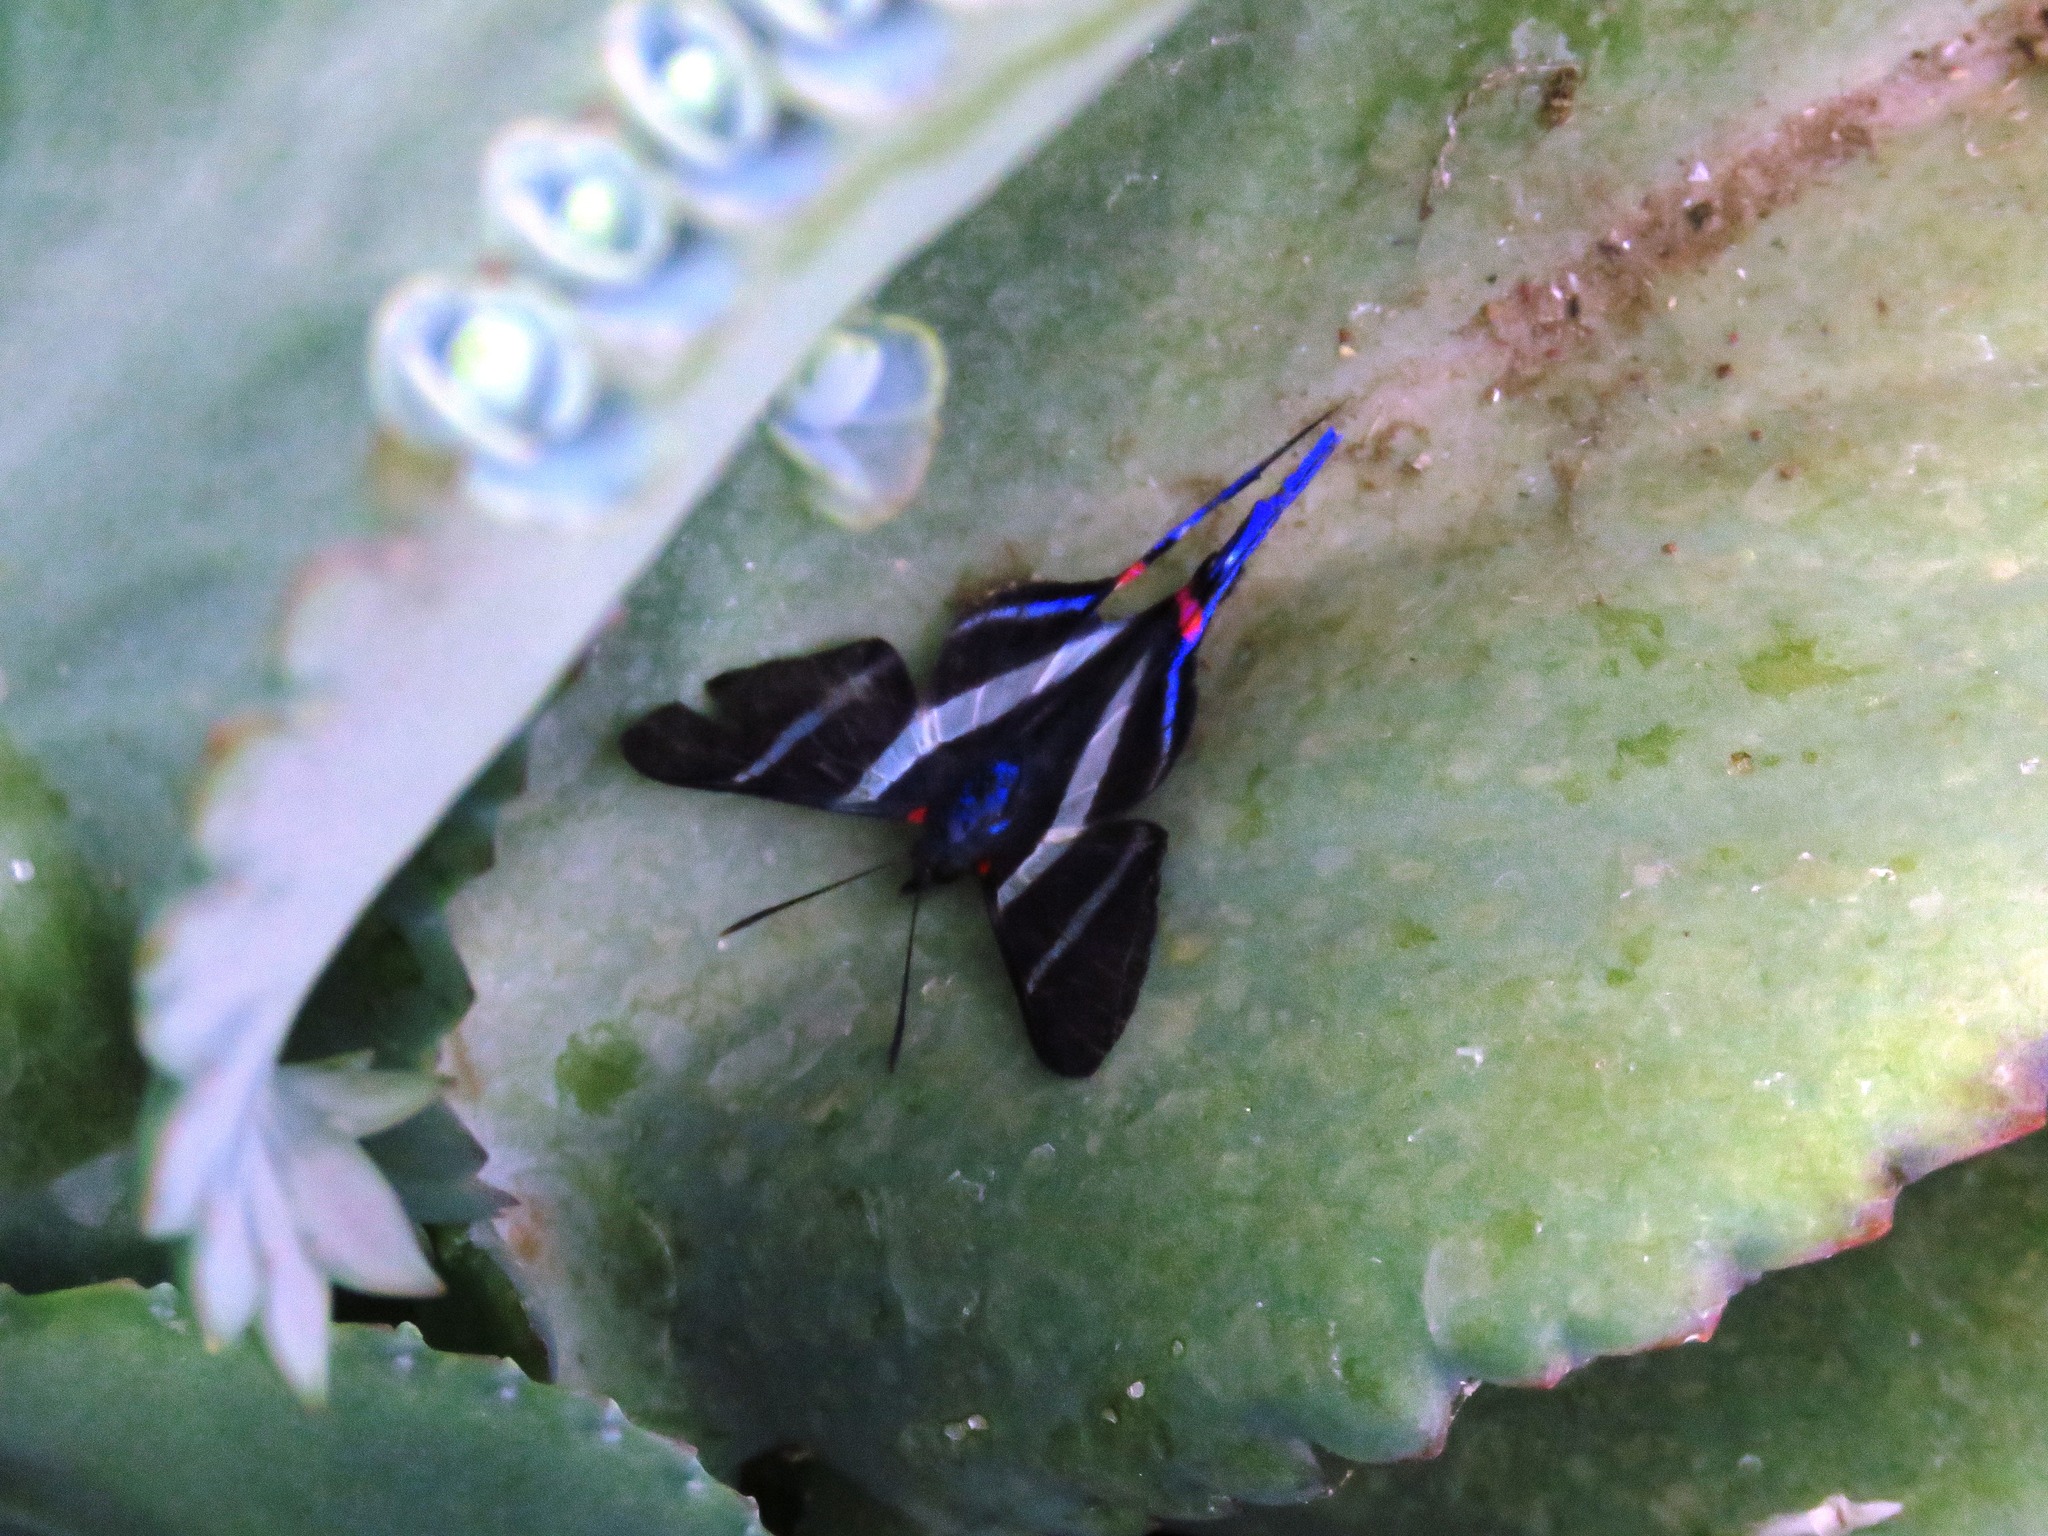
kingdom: Animalia
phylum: Arthropoda
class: Insecta
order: Lepidoptera
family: Riodinidae
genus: Rhetus
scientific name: Rhetus arcius
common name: Long-tailed metalmark
